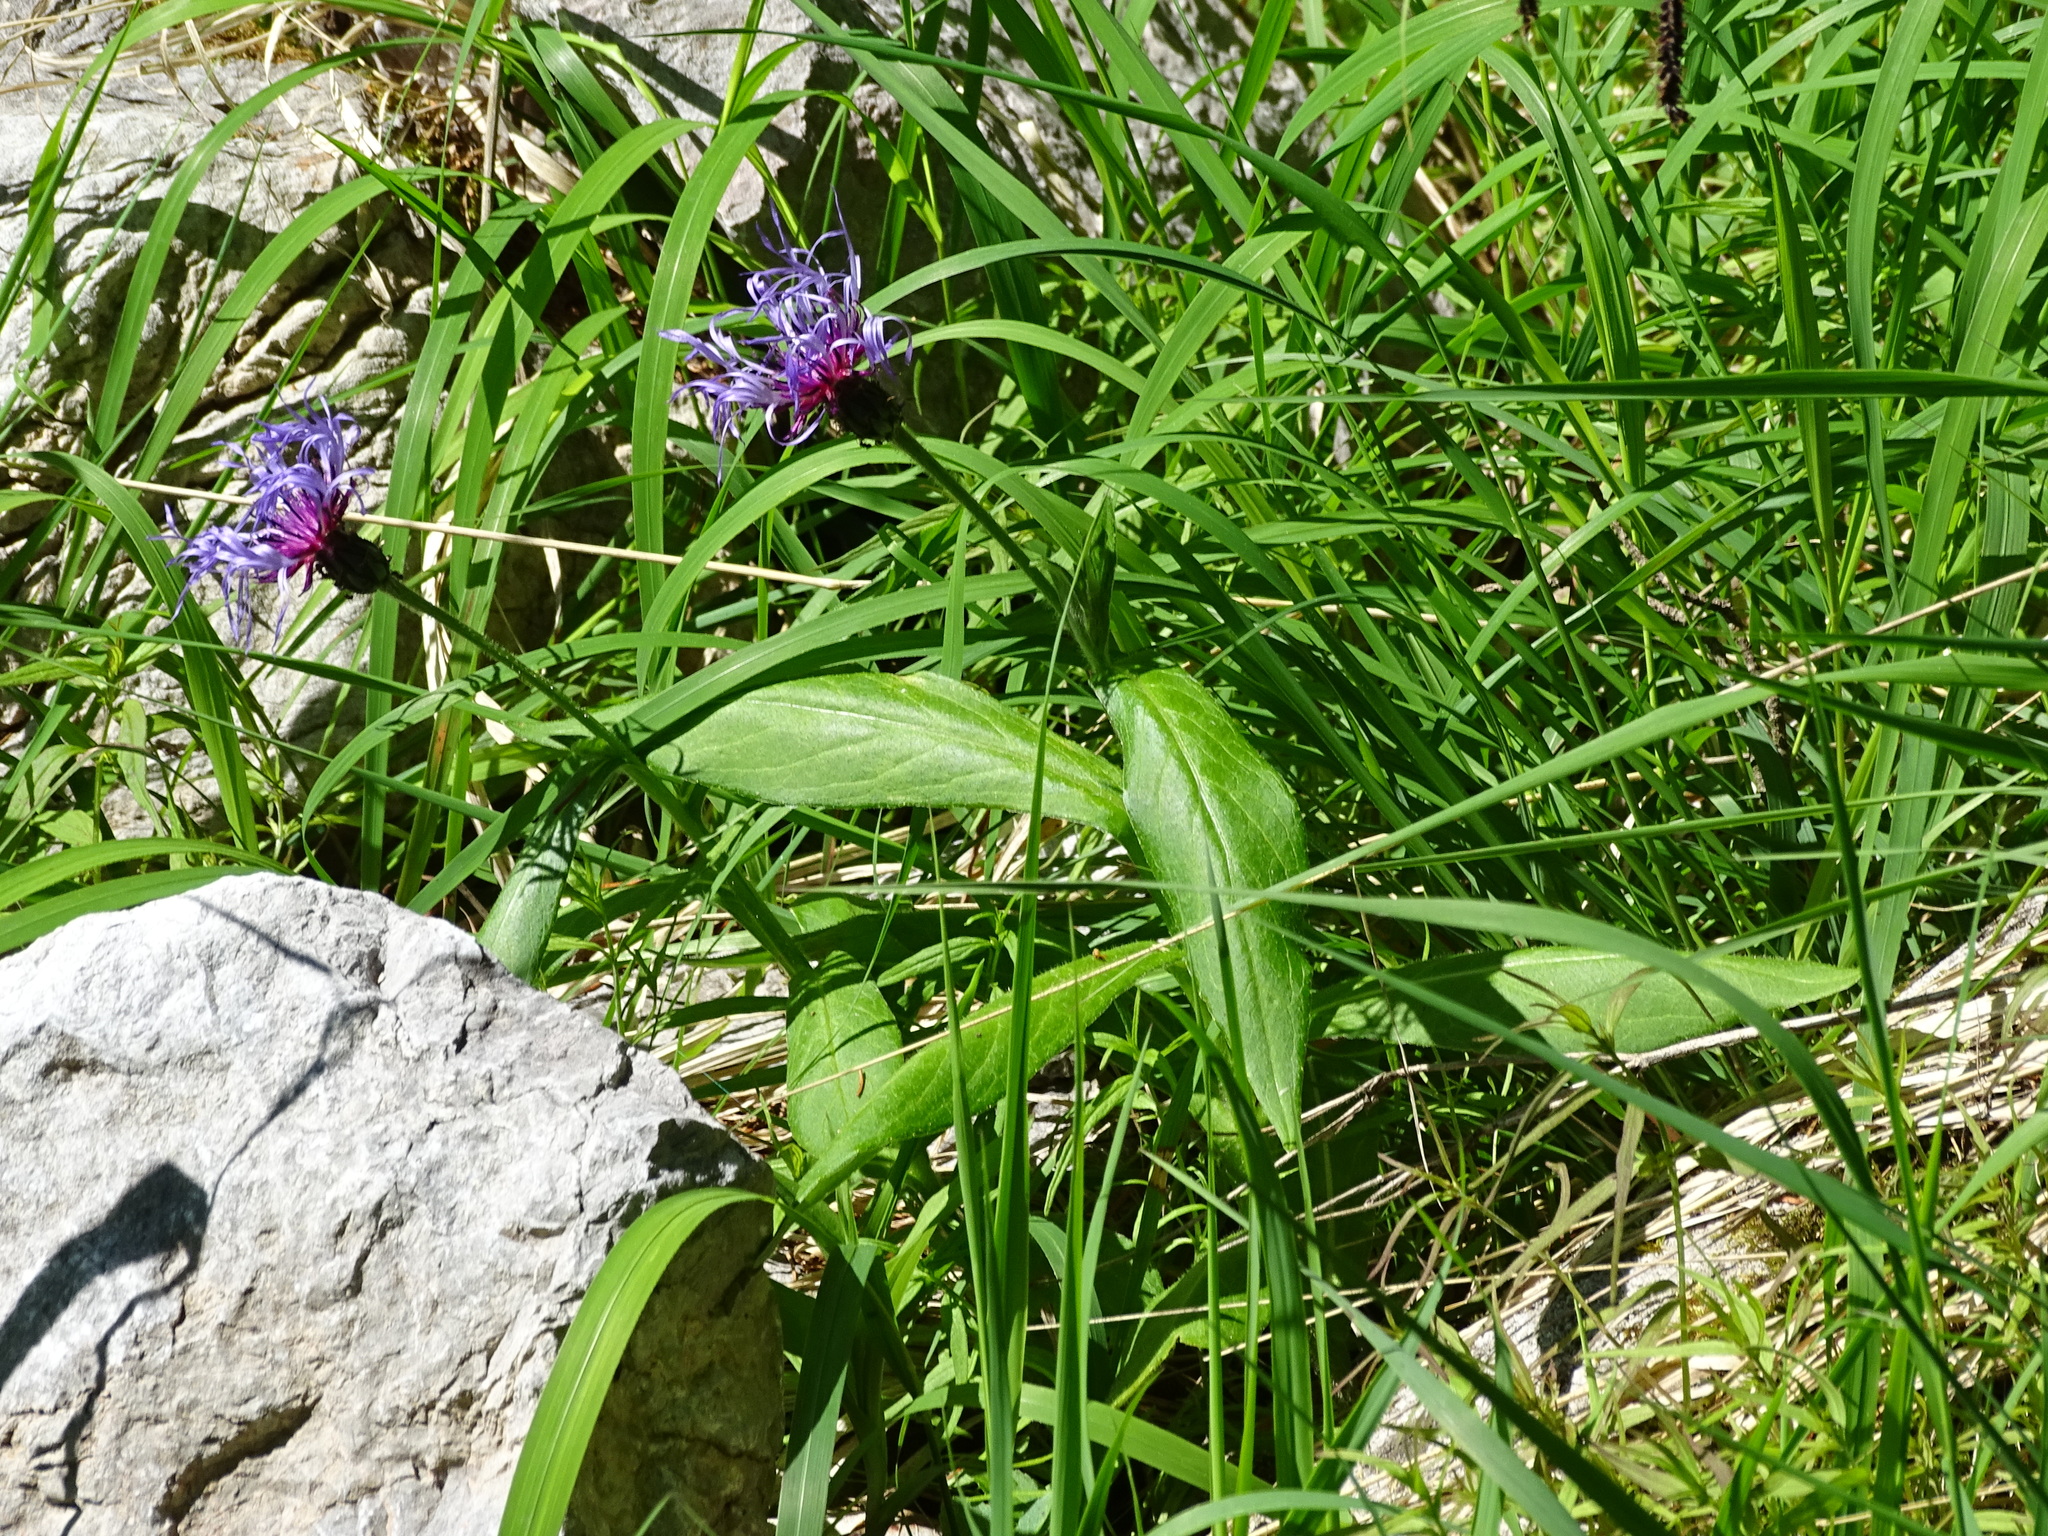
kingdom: Plantae
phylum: Tracheophyta
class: Magnoliopsida
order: Asterales
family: Asteraceae
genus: Centaurea
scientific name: Centaurea montana
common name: Perennial cornflower
